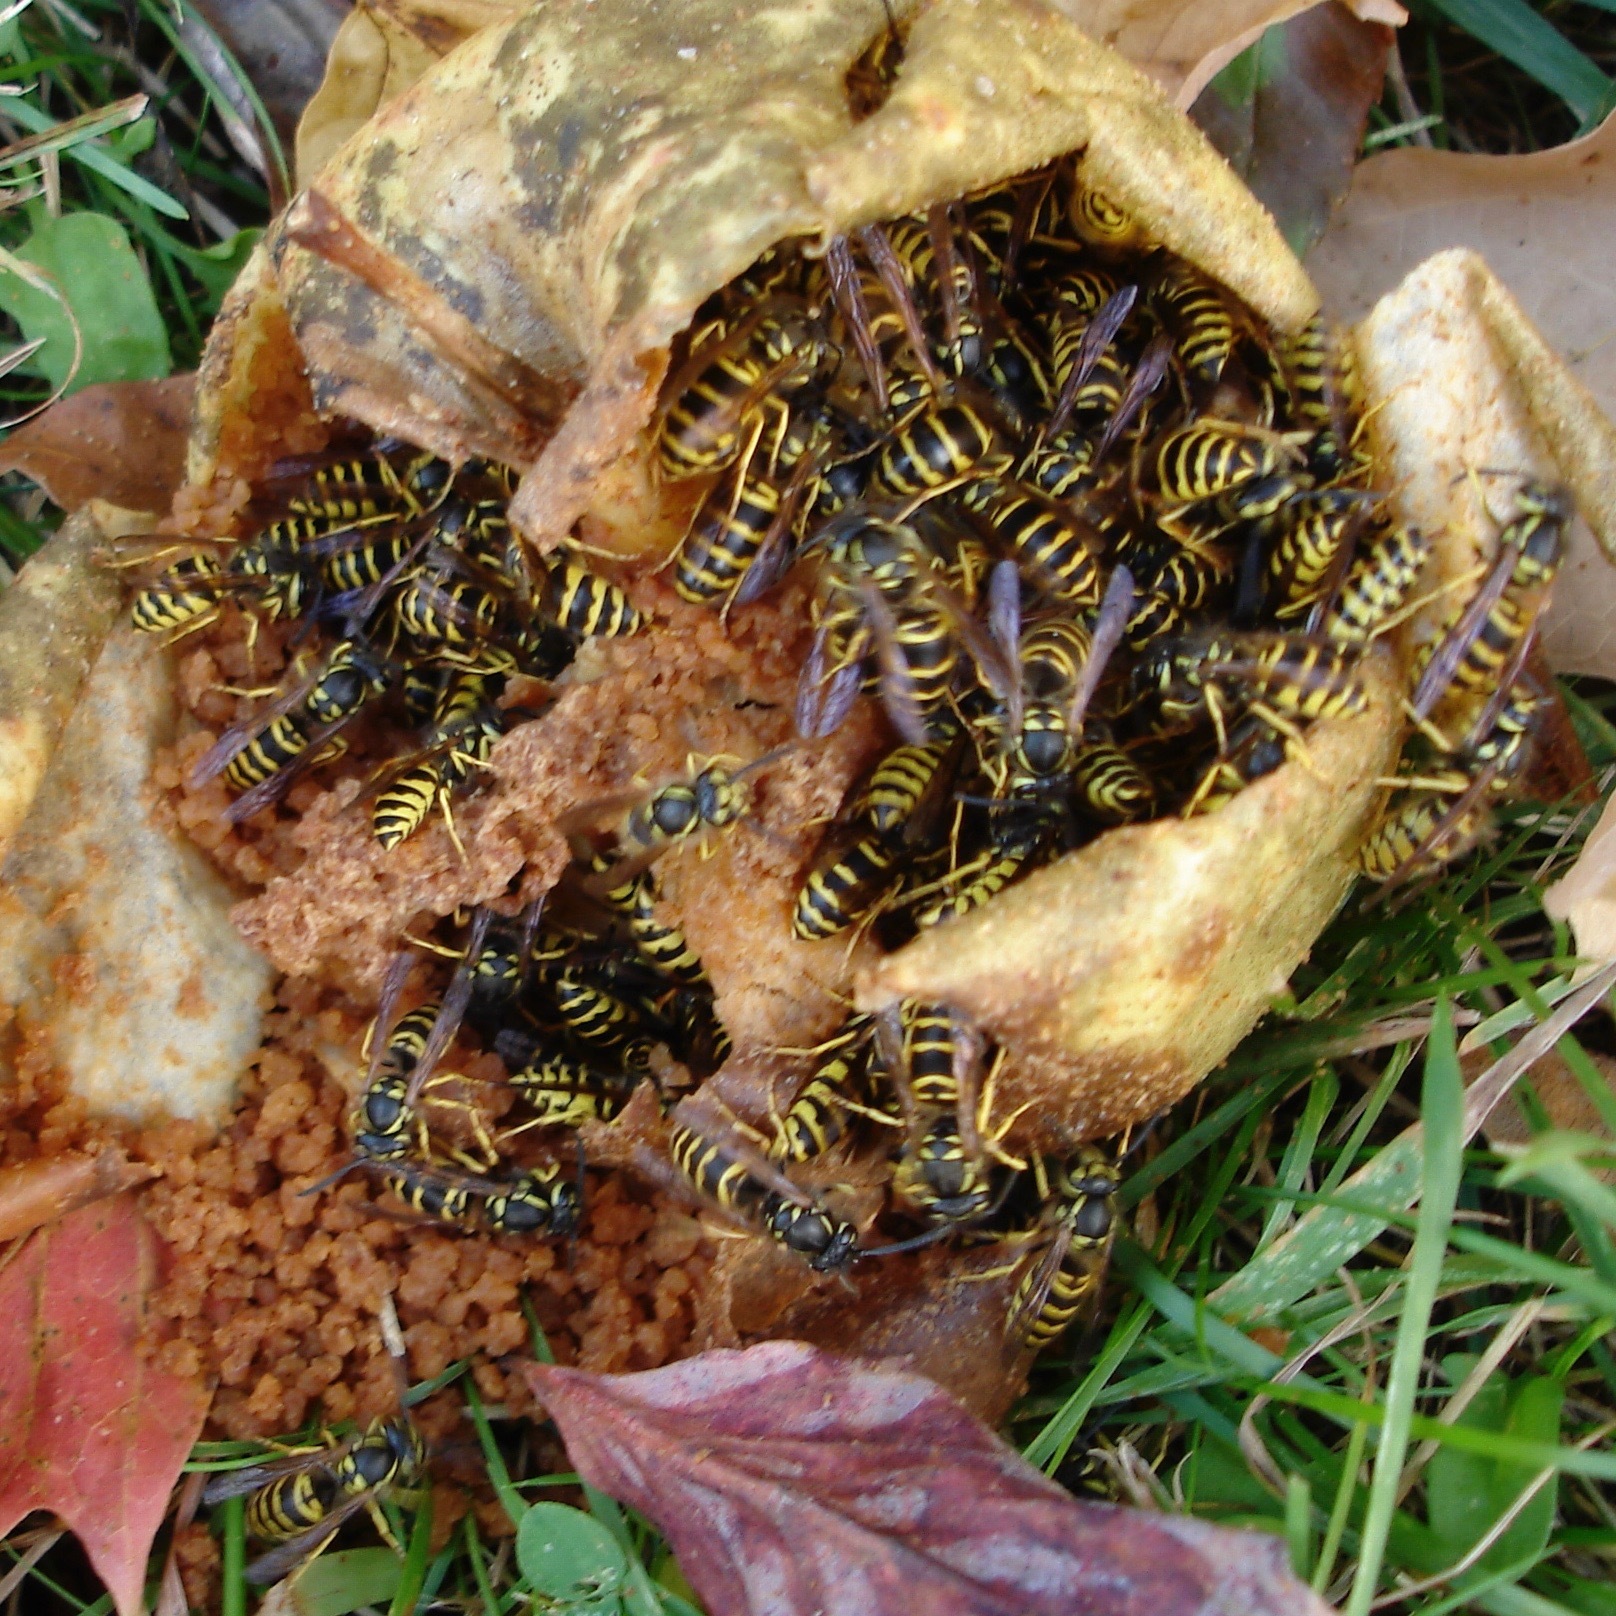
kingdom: Animalia
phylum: Arthropoda
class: Insecta
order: Hymenoptera
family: Vespidae
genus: Vespula
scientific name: Vespula maculifrons
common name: Eastern yellowjacket
